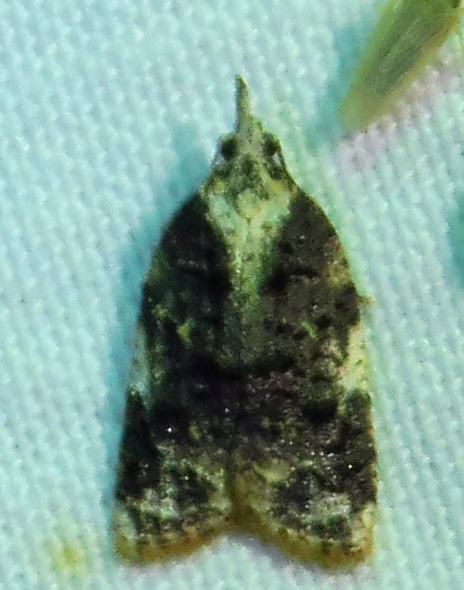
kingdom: Animalia
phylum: Arthropoda
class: Insecta
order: Lepidoptera
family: Tortricidae
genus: Platynota
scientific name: Platynota exasperatana
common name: Exasperating platynota moth
